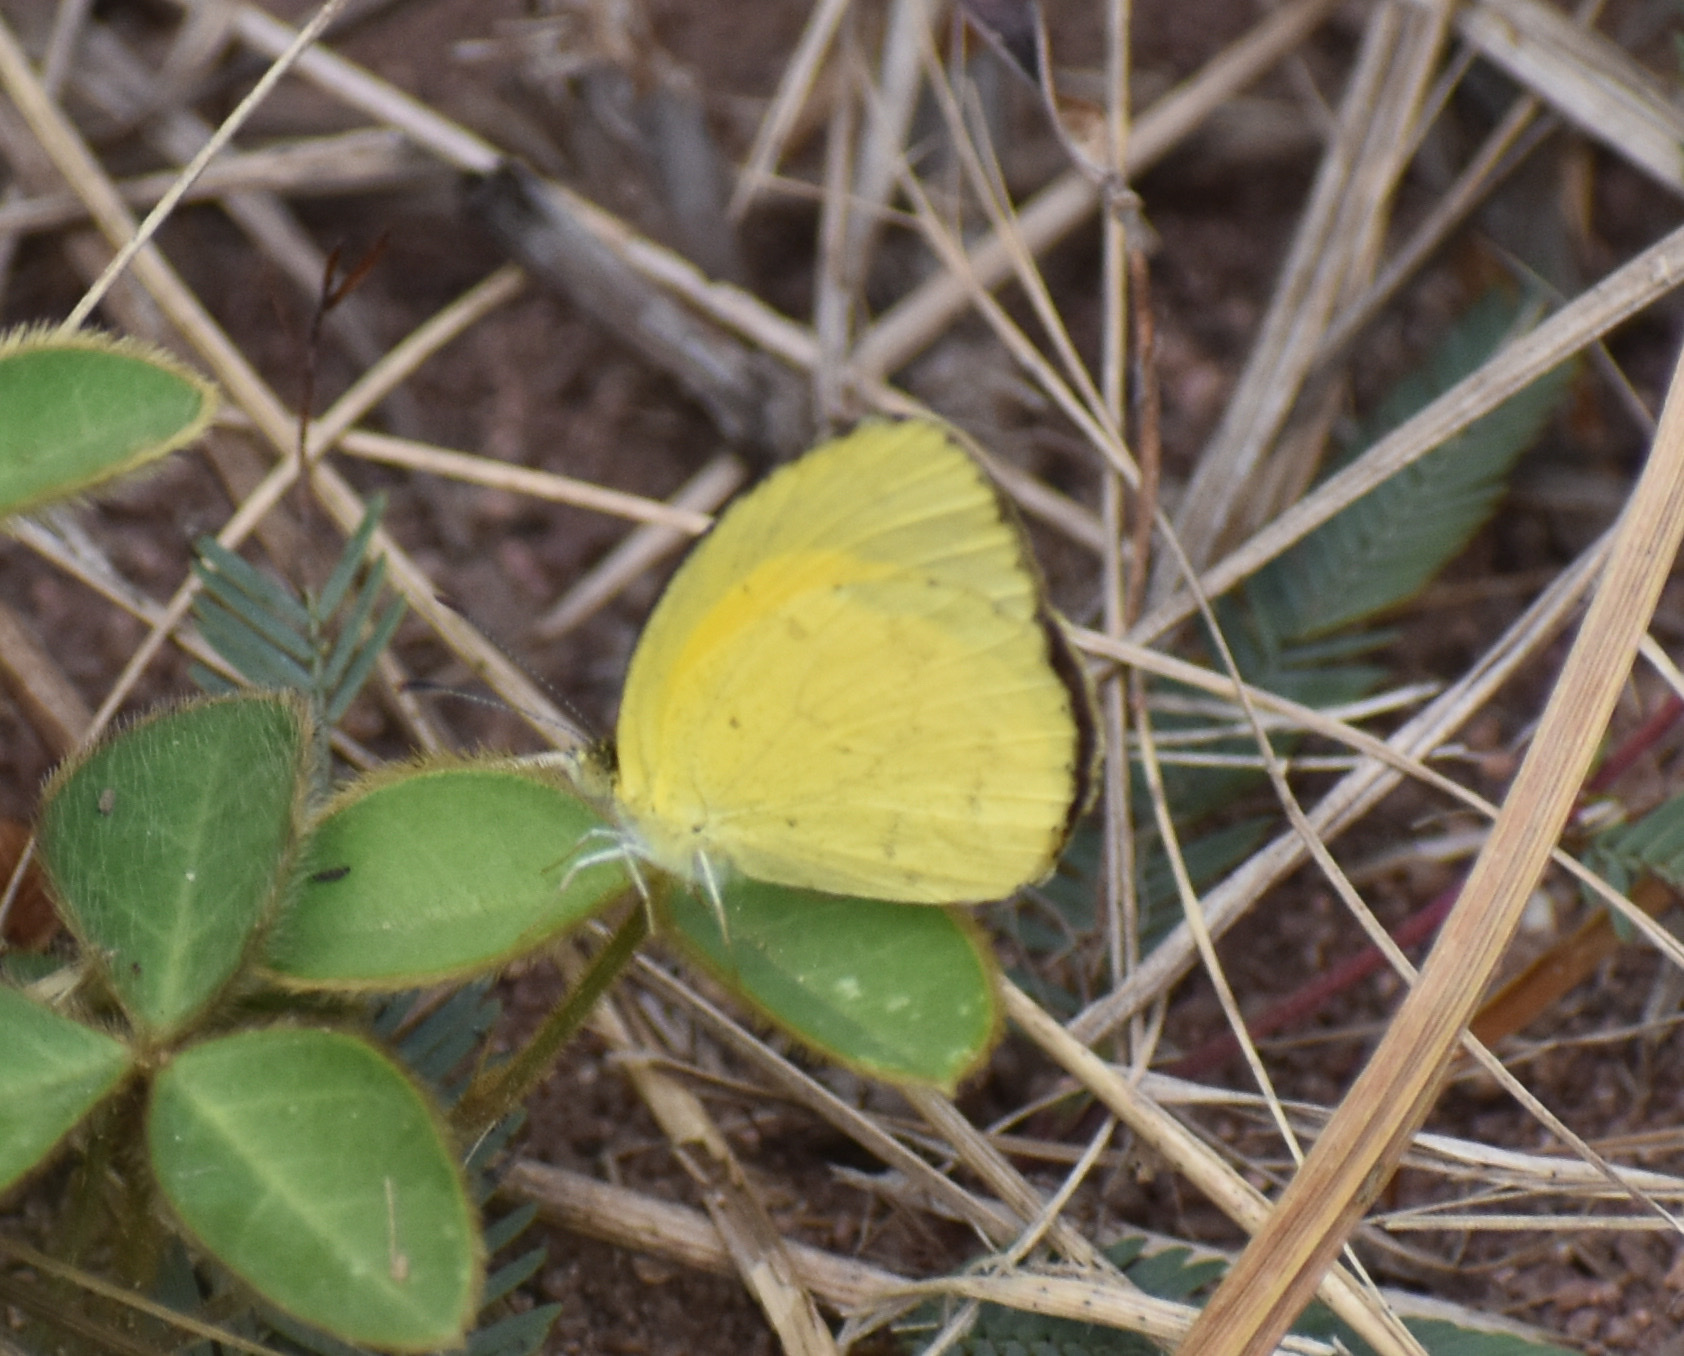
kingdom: Animalia
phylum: Arthropoda
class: Insecta
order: Lepidoptera
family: Pieridae
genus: Eurema
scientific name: Eurema brigitta
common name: Small grass yellow
